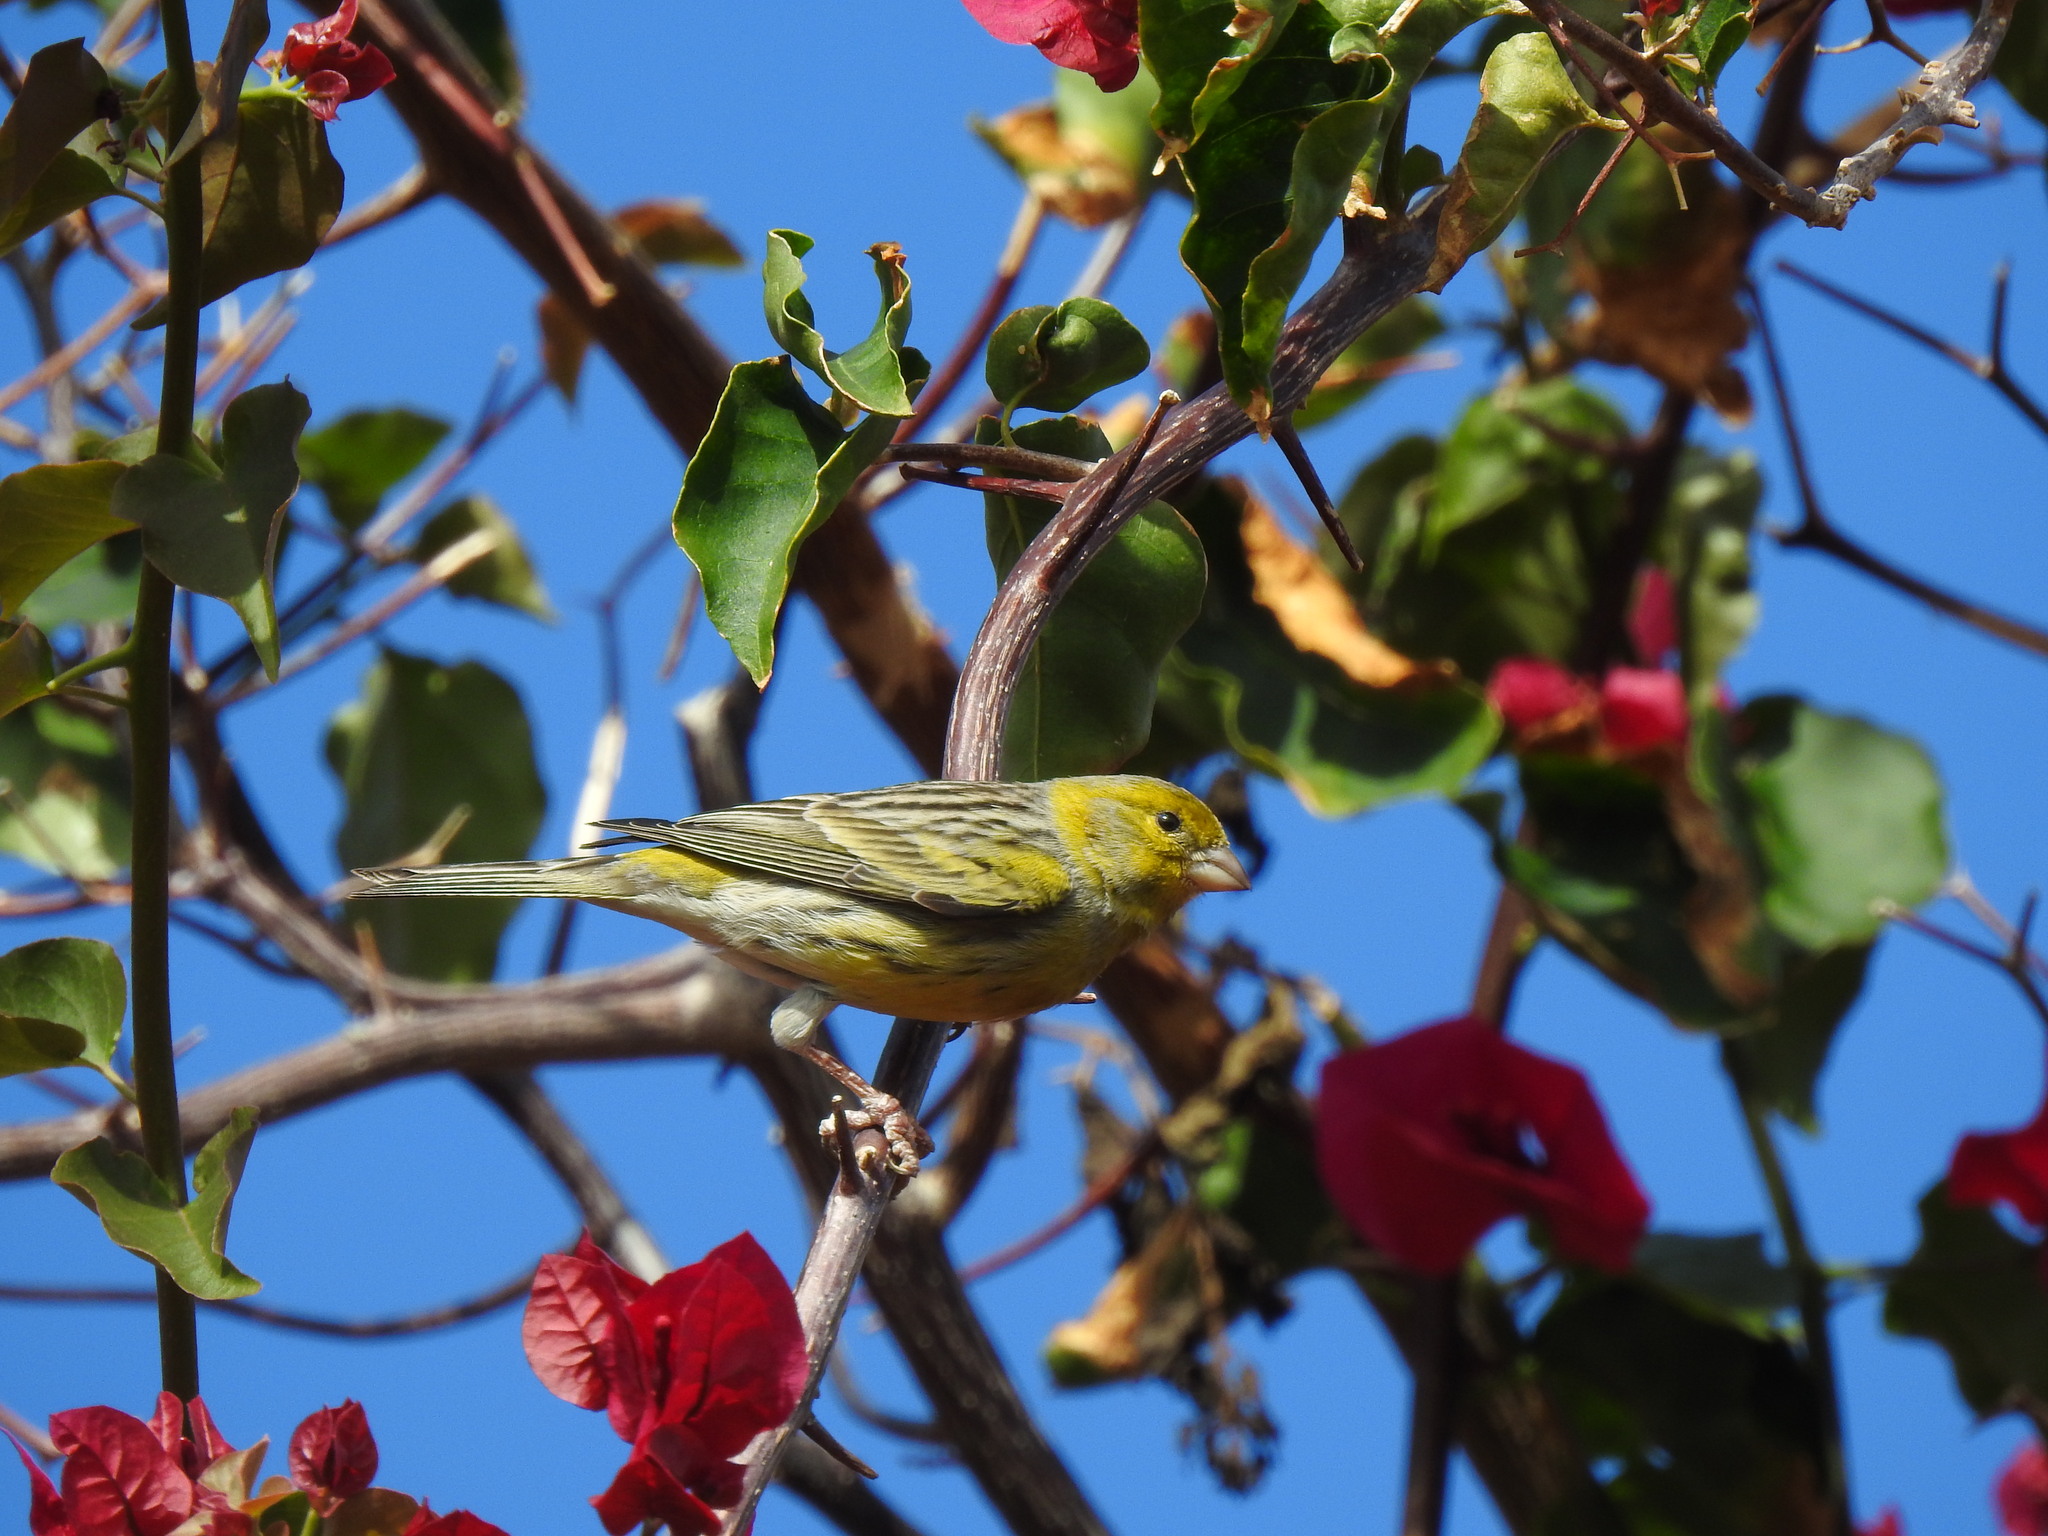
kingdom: Animalia
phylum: Chordata
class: Aves
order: Passeriformes
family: Fringillidae
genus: Serinus
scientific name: Serinus canaria
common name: Atlantic canary
